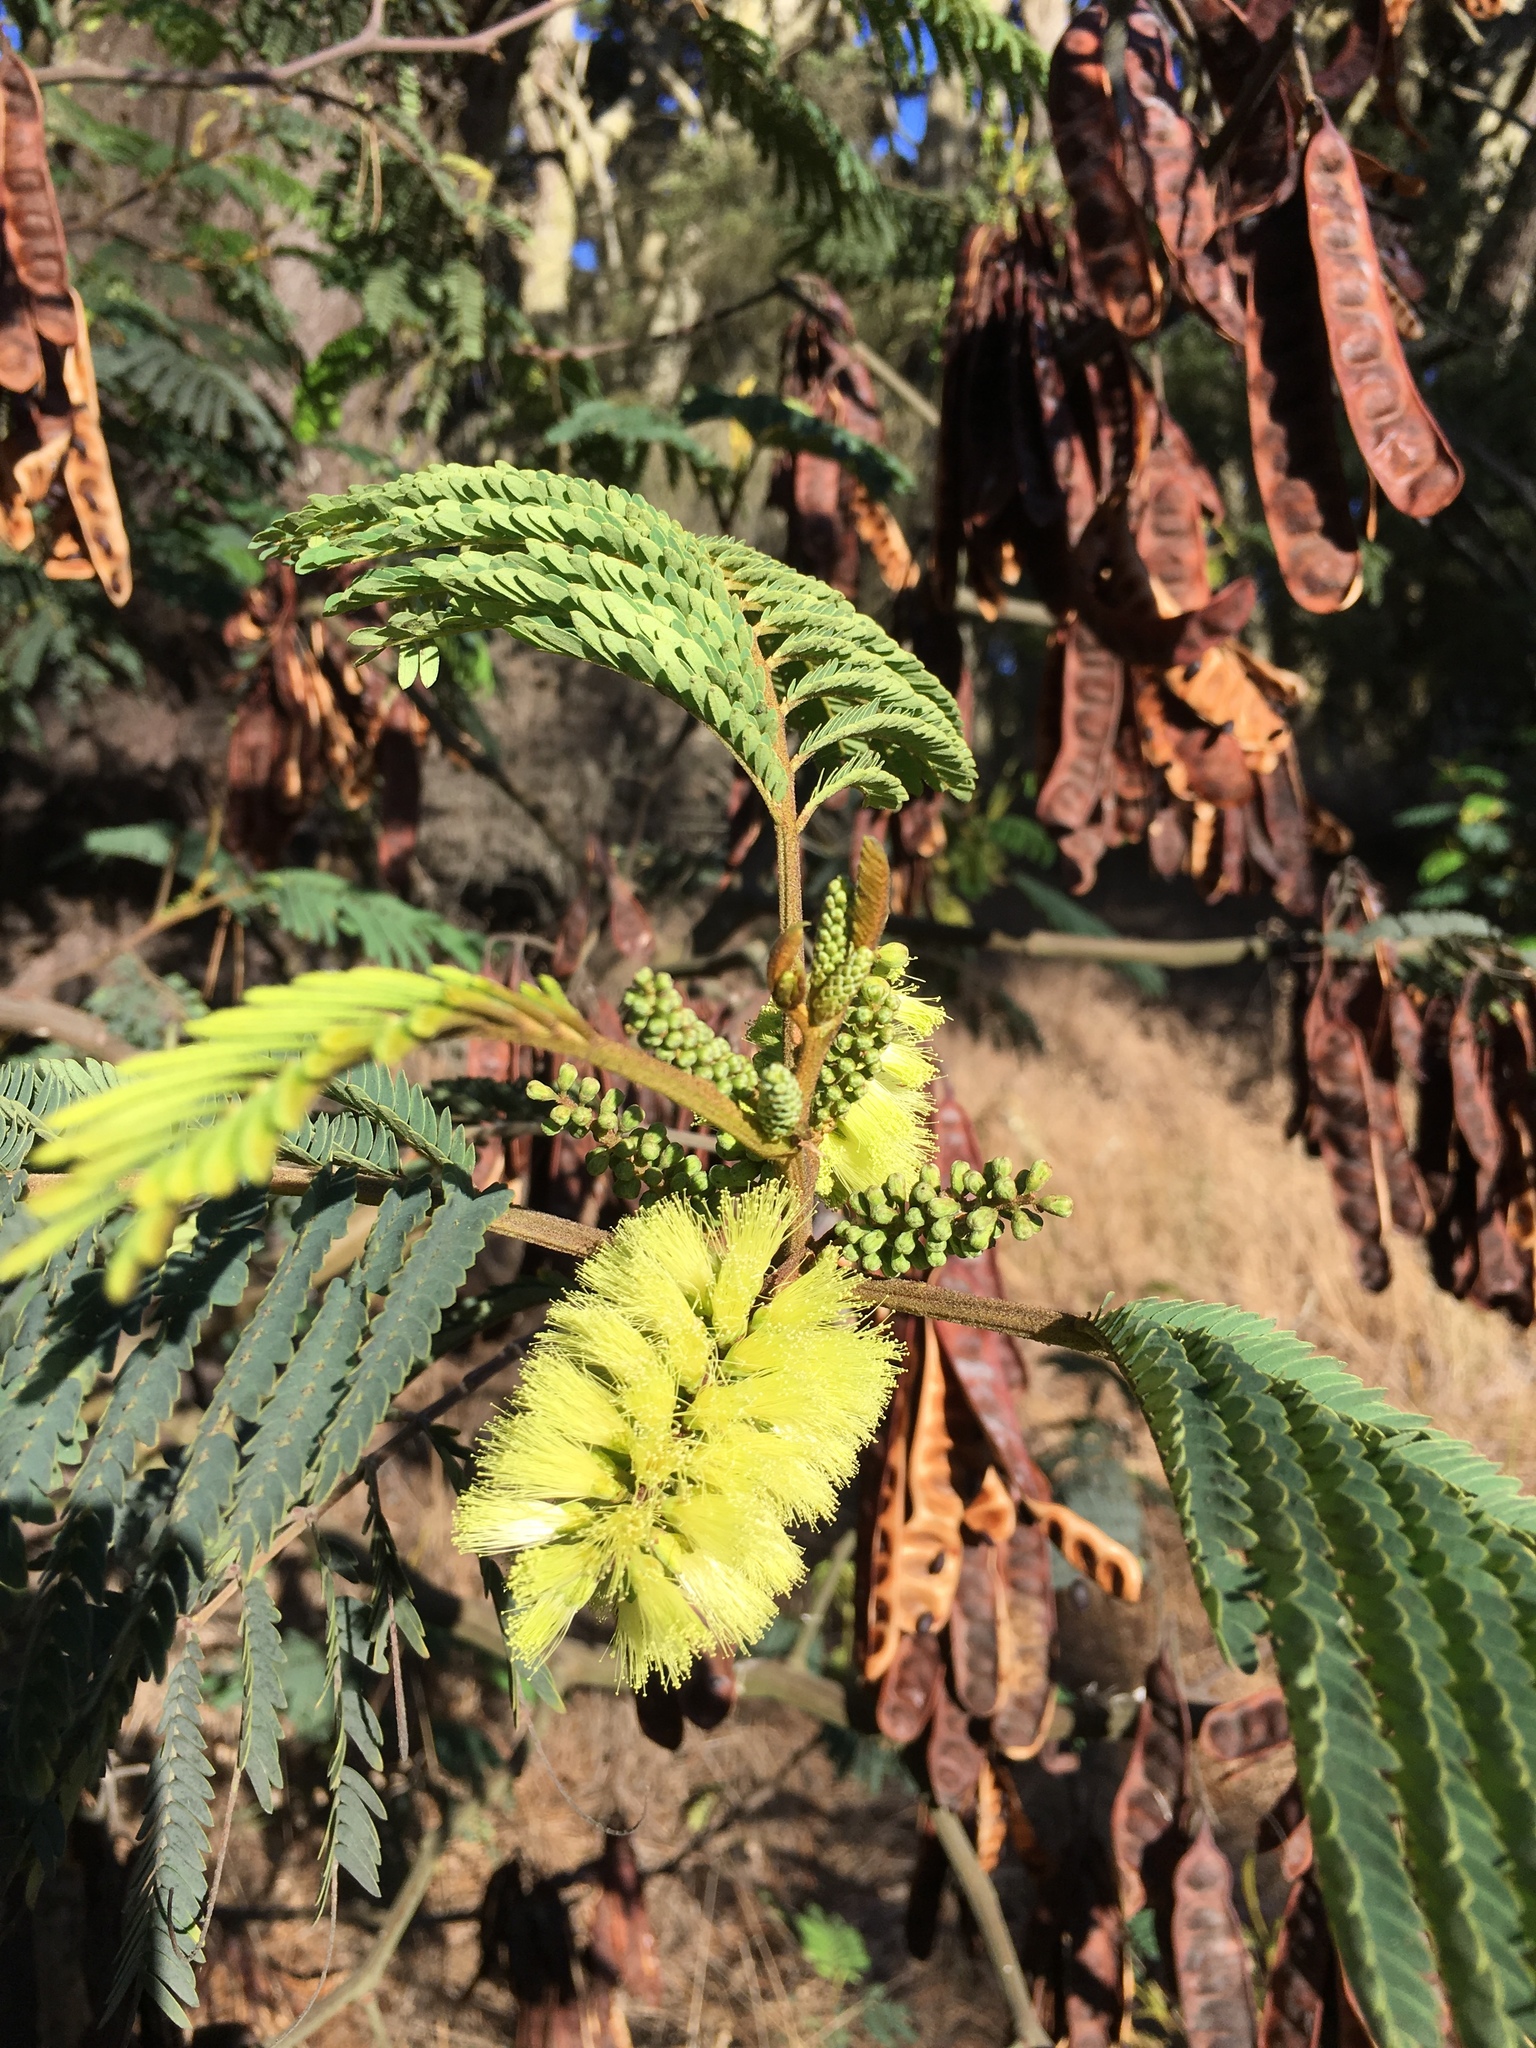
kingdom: Plantae
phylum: Tracheophyta
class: Magnoliopsida
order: Fabales
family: Fabaceae
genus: Paraserianthes
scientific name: Paraserianthes lophantha
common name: Plume albizia
